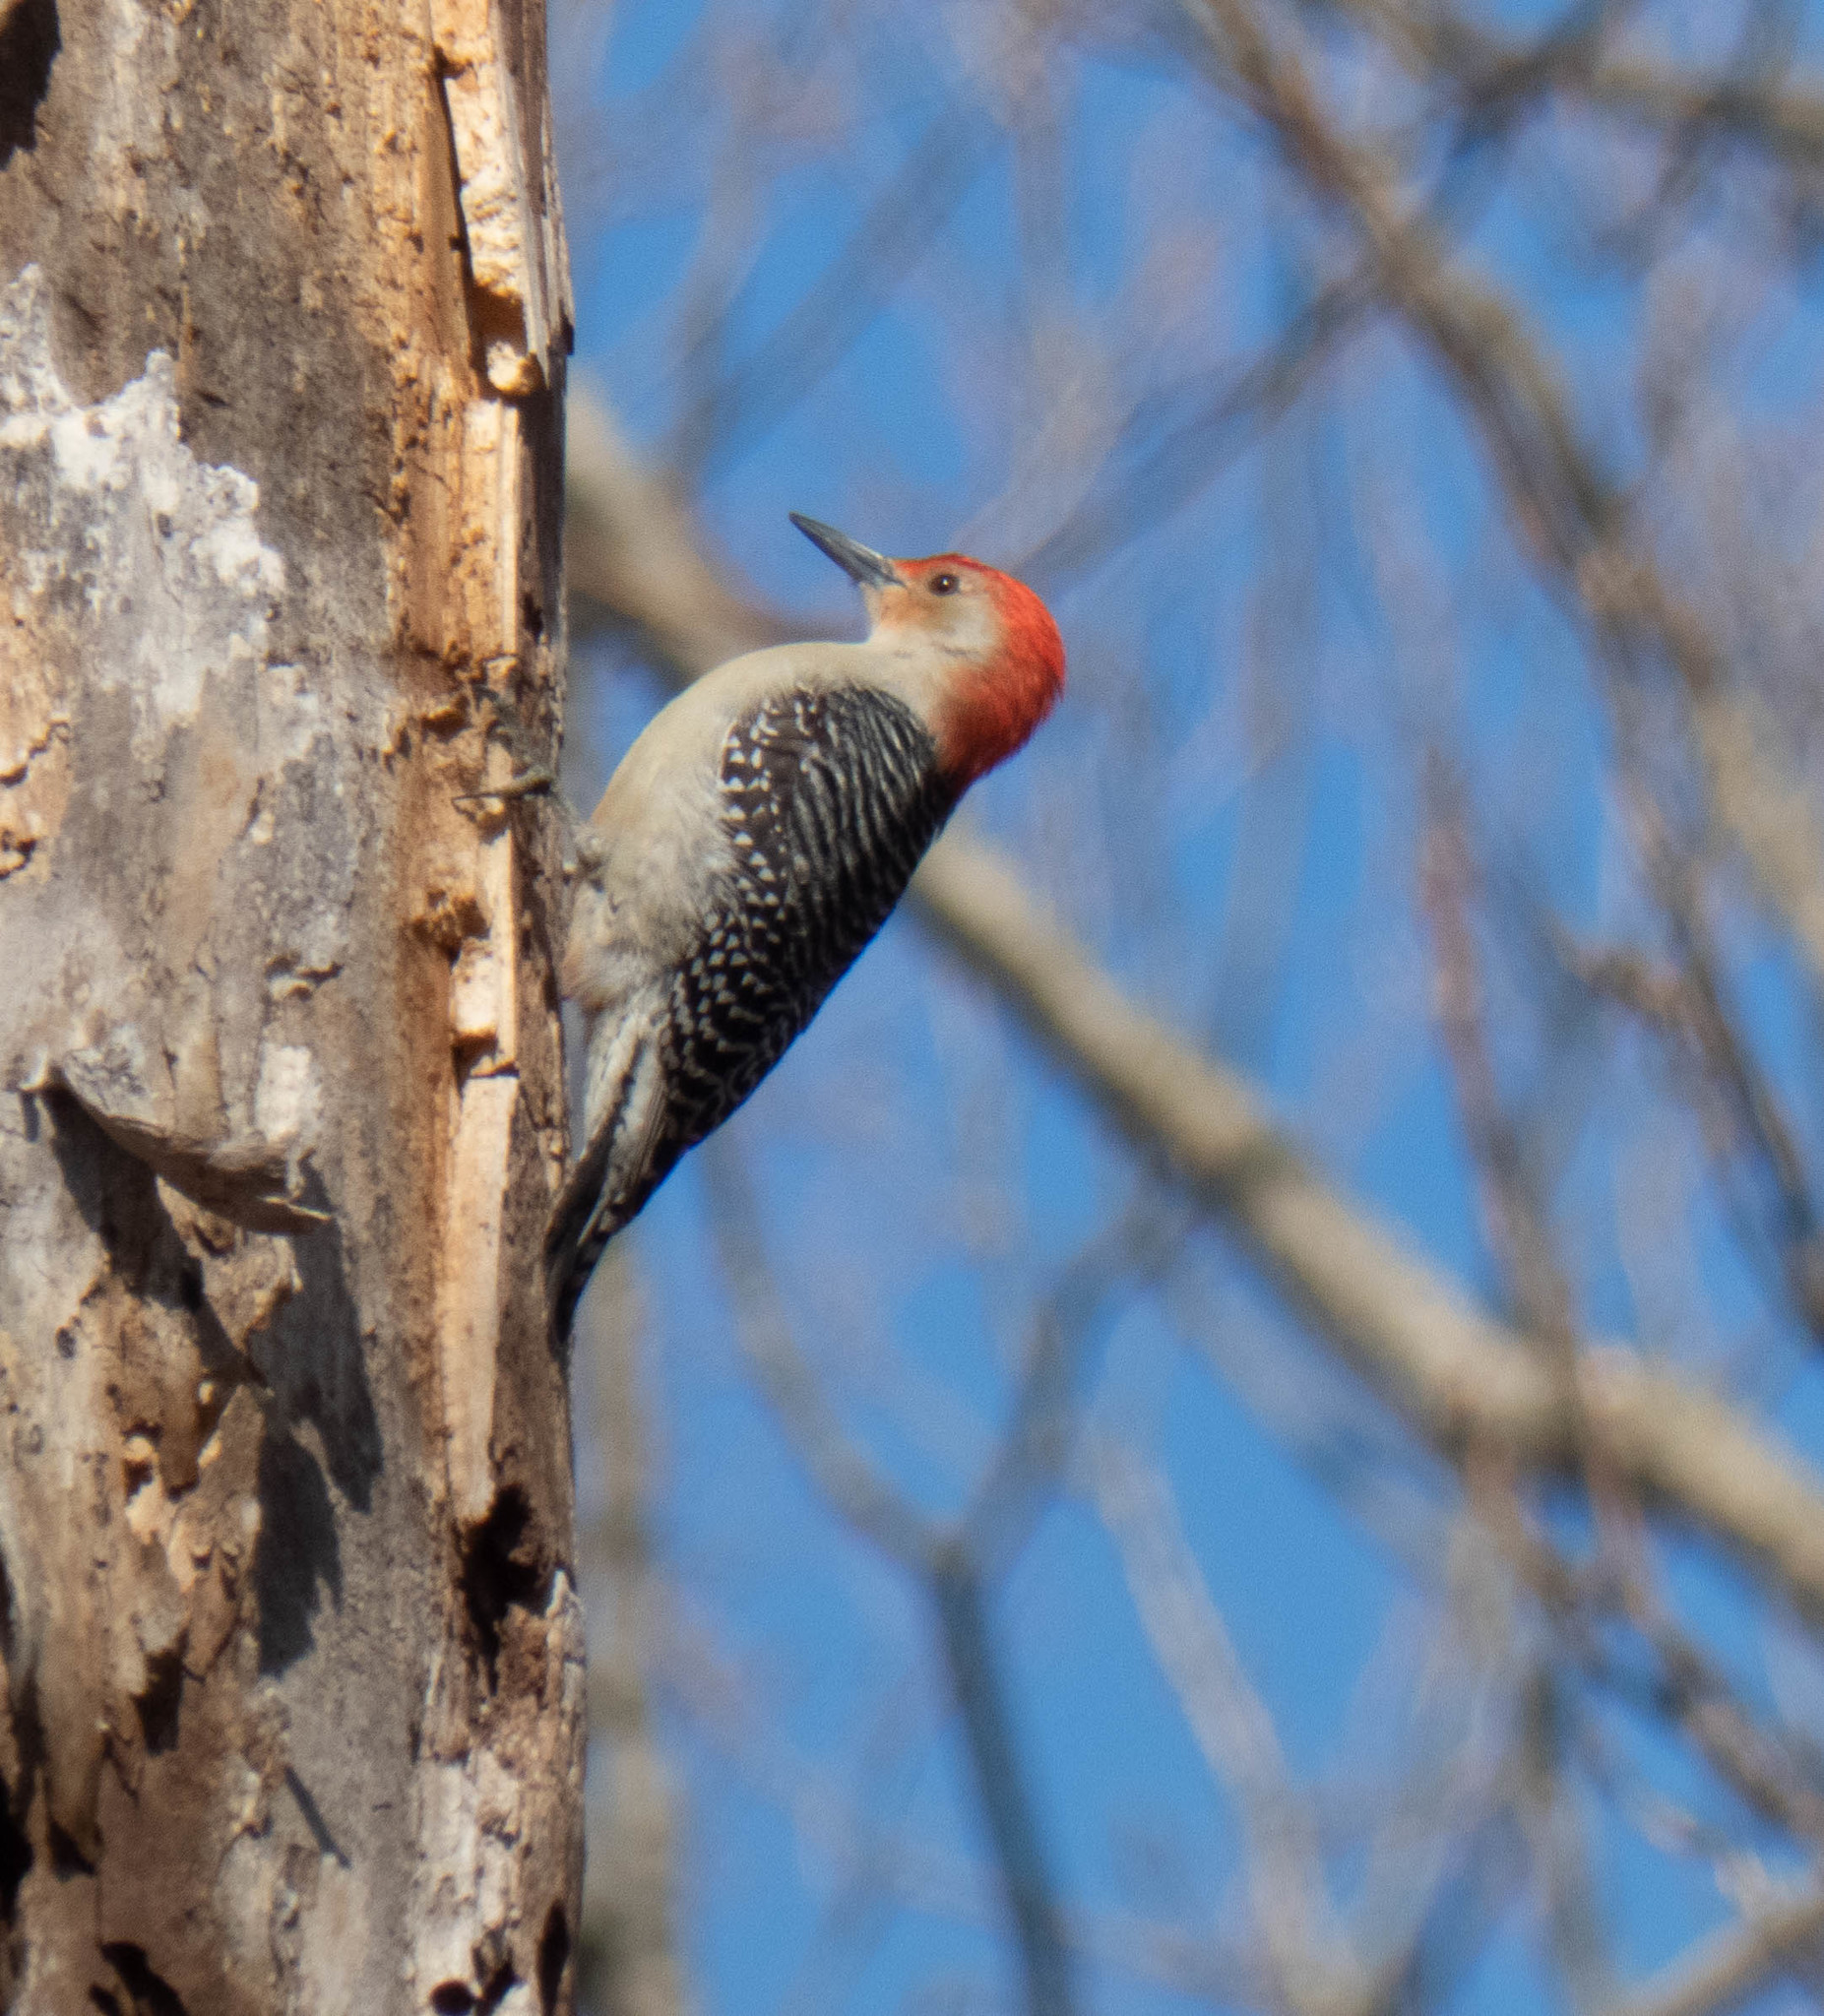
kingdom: Animalia
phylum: Chordata
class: Aves
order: Piciformes
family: Picidae
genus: Melanerpes
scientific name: Melanerpes carolinus
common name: Red-bellied woodpecker
